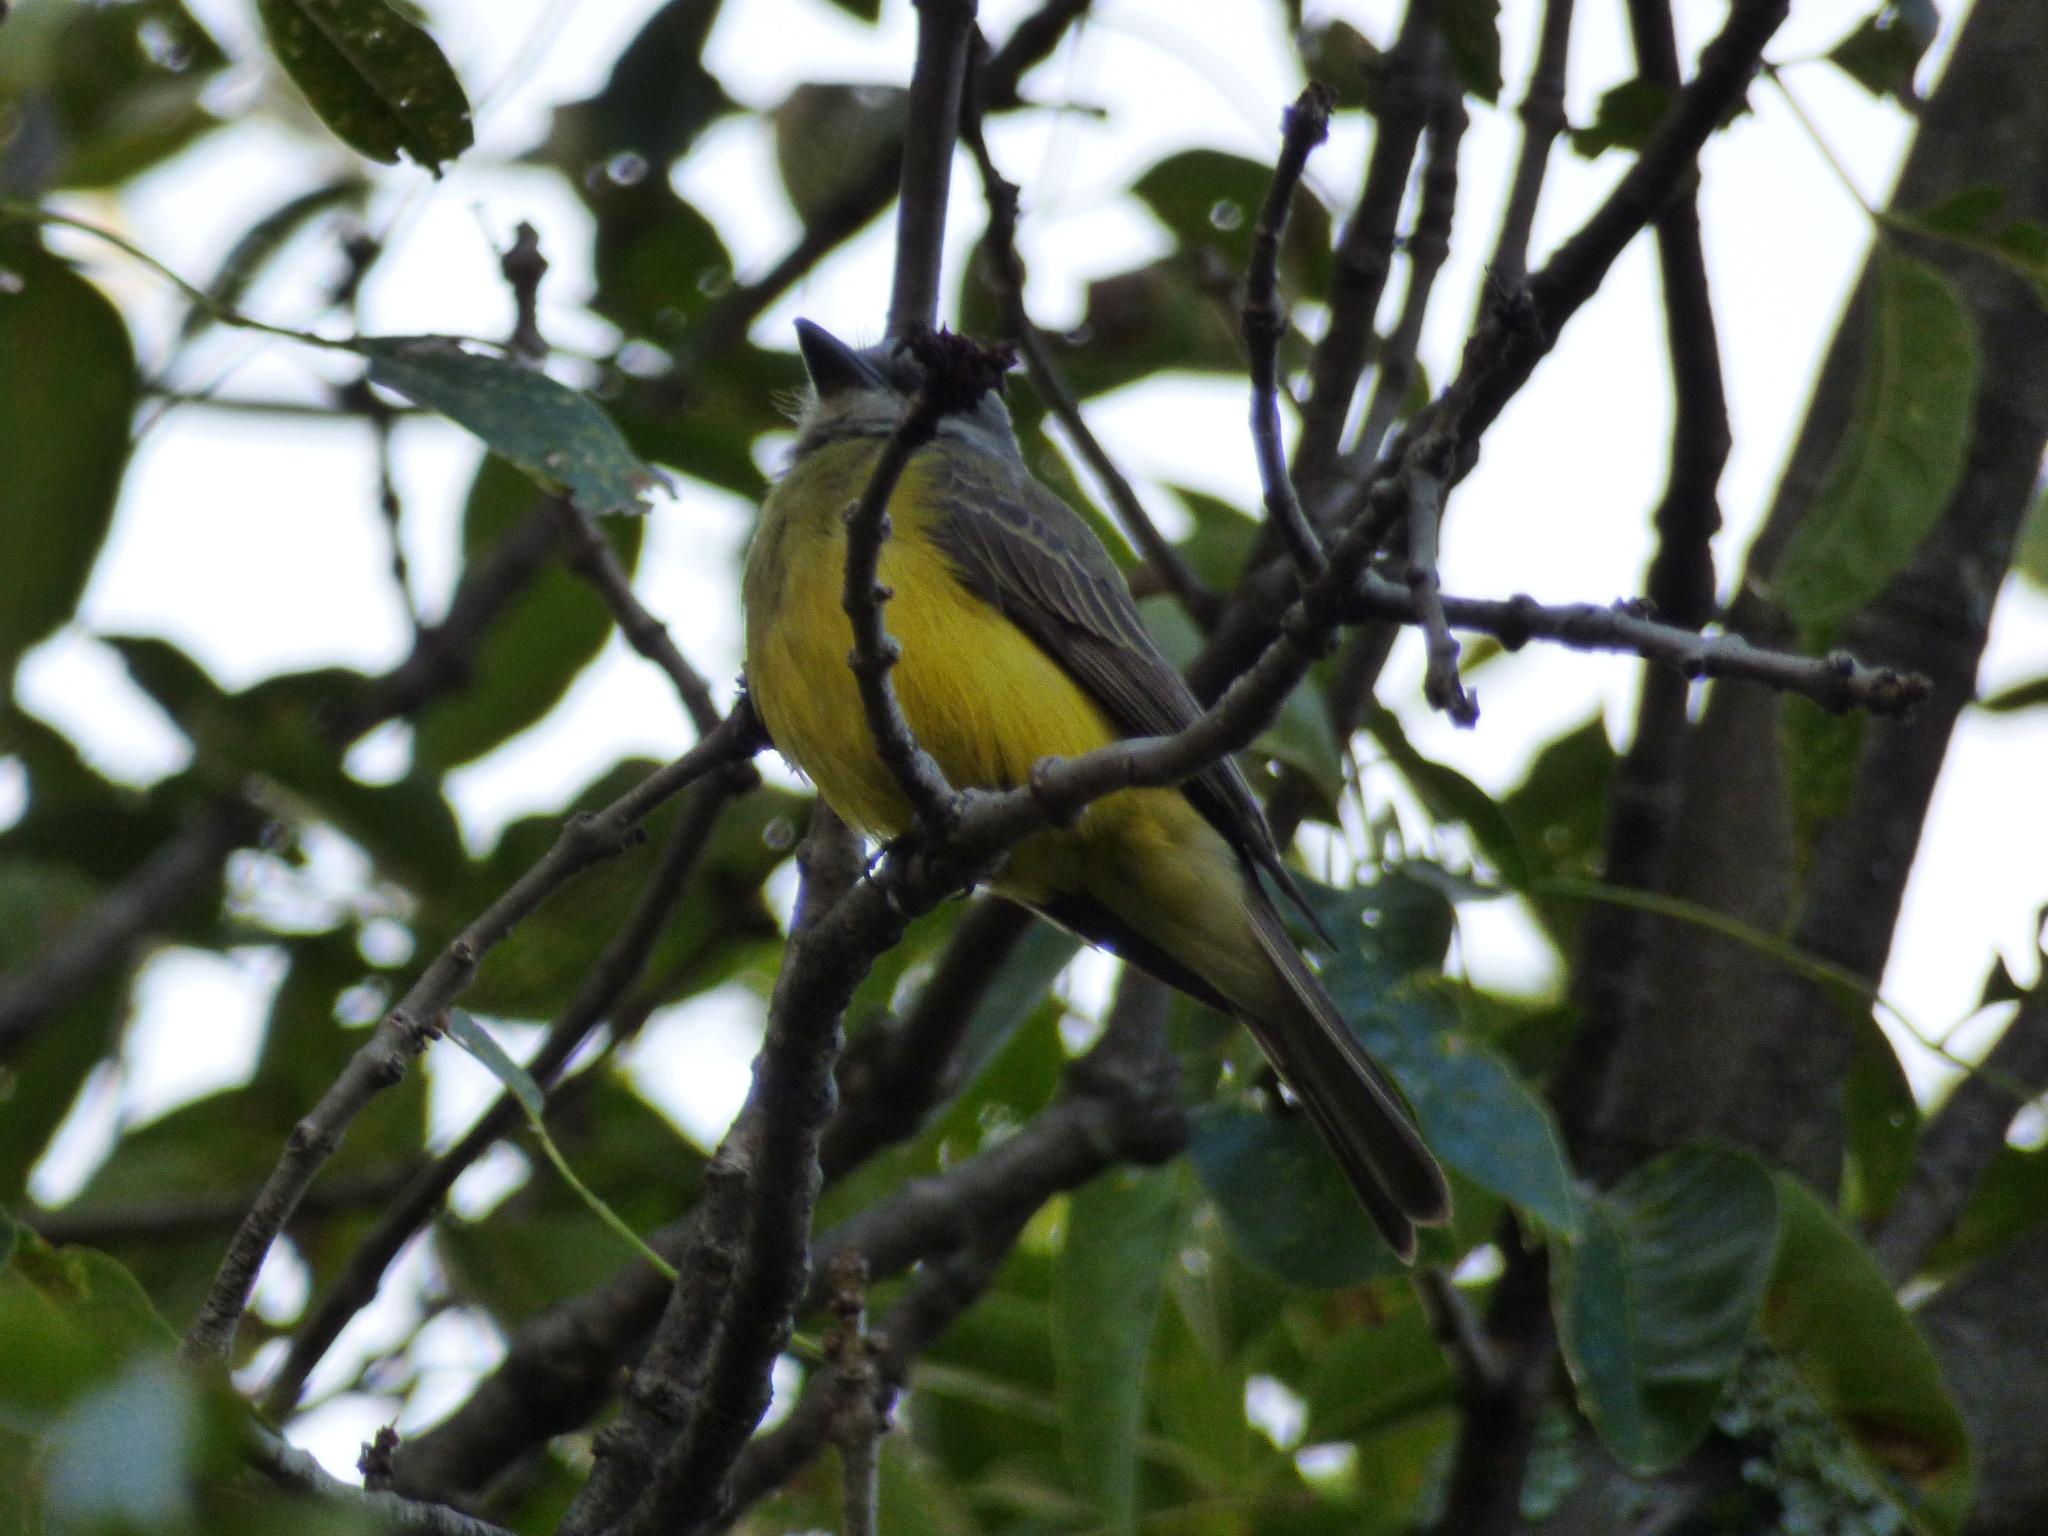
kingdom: Animalia
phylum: Chordata
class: Aves
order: Passeriformes
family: Tyrannidae
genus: Tyrannus
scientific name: Tyrannus melancholicus
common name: Tropical kingbird
